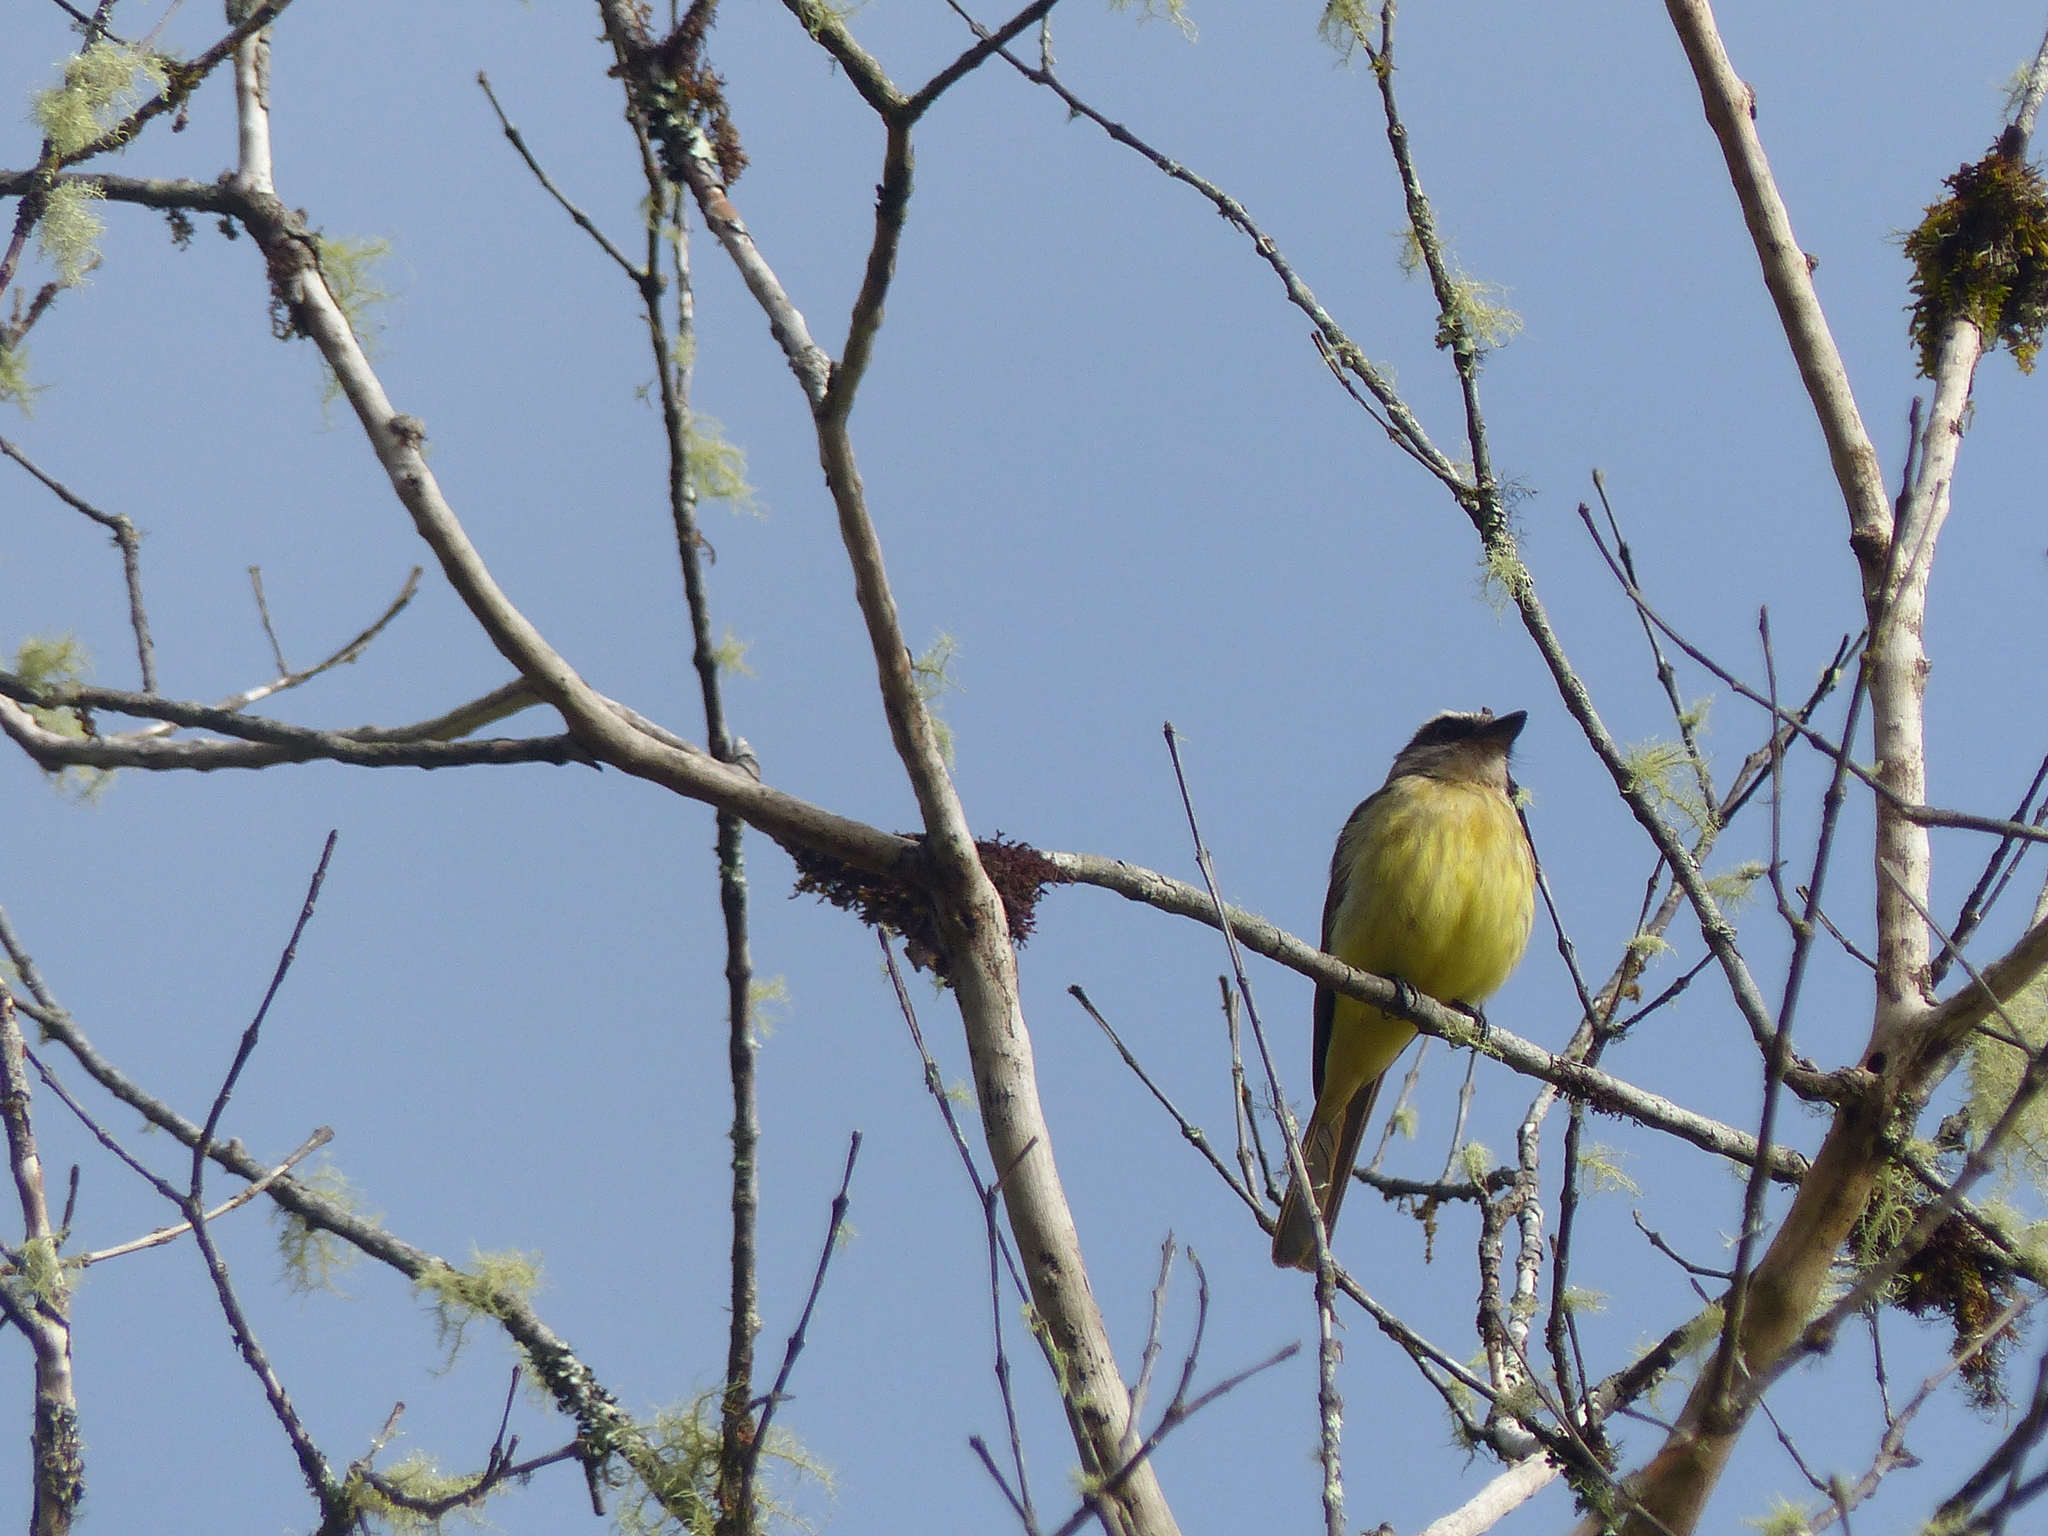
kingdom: Animalia
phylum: Chordata
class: Aves
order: Passeriformes
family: Tyrannidae
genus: Myiodynastes
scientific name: Myiodynastes hemichrysus
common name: Golden-bellied flycatcher
